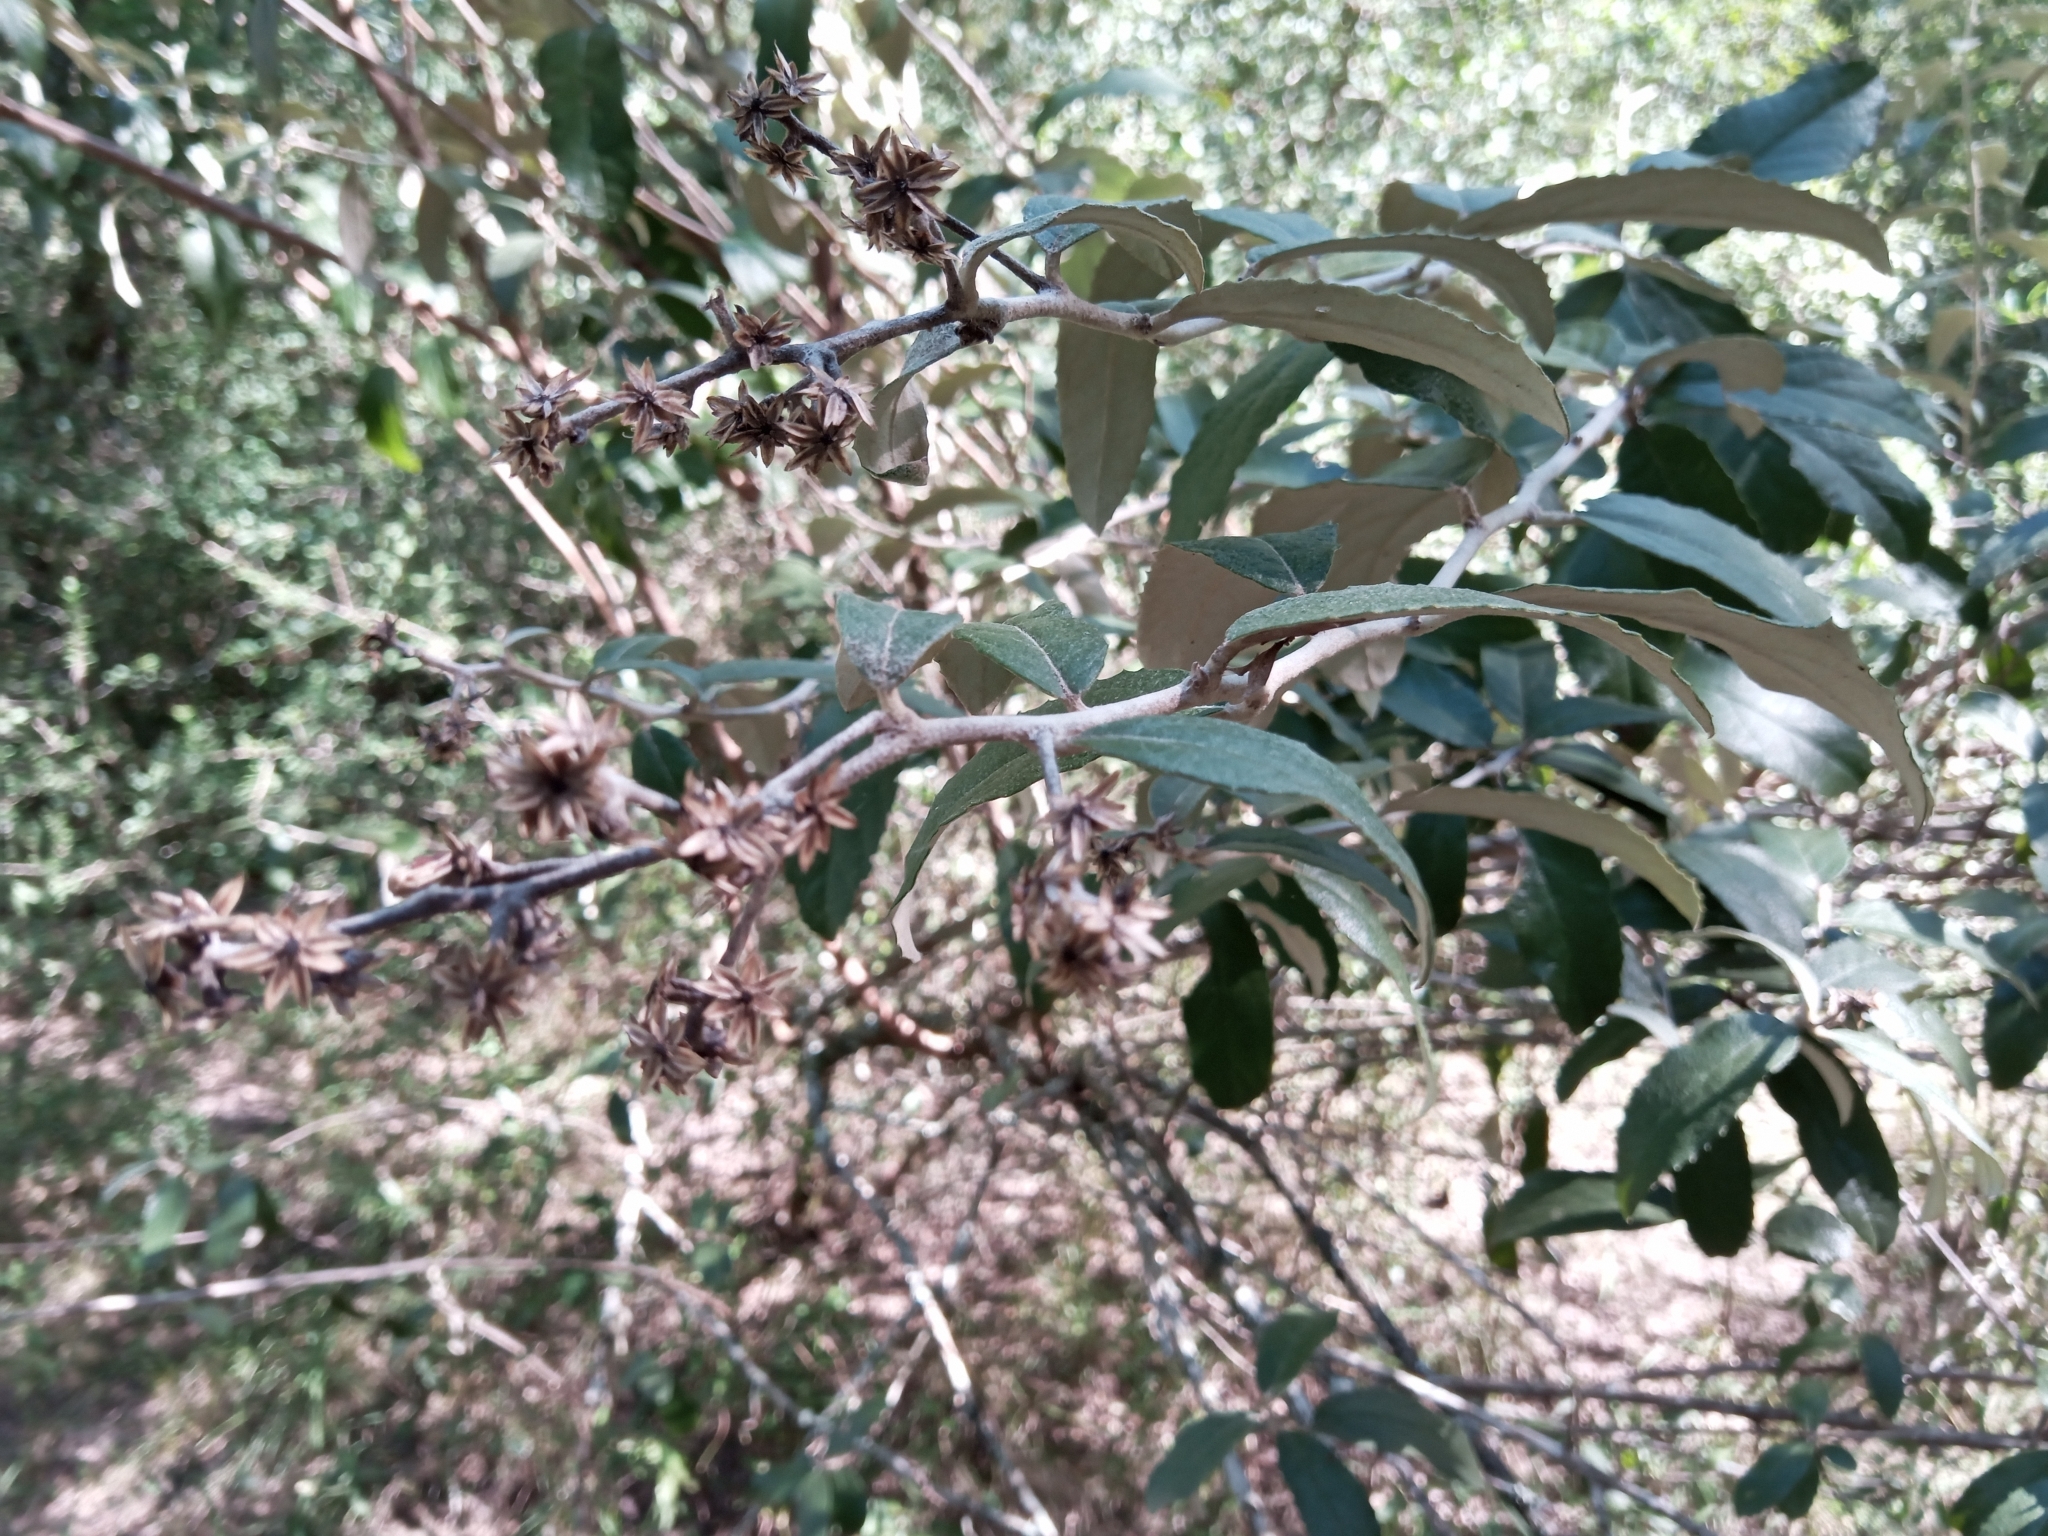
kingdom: Plantae
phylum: Tracheophyta
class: Magnoliopsida
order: Asterales
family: Asteraceae
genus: Moquiniastrum
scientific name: Moquiniastrum argentinum
